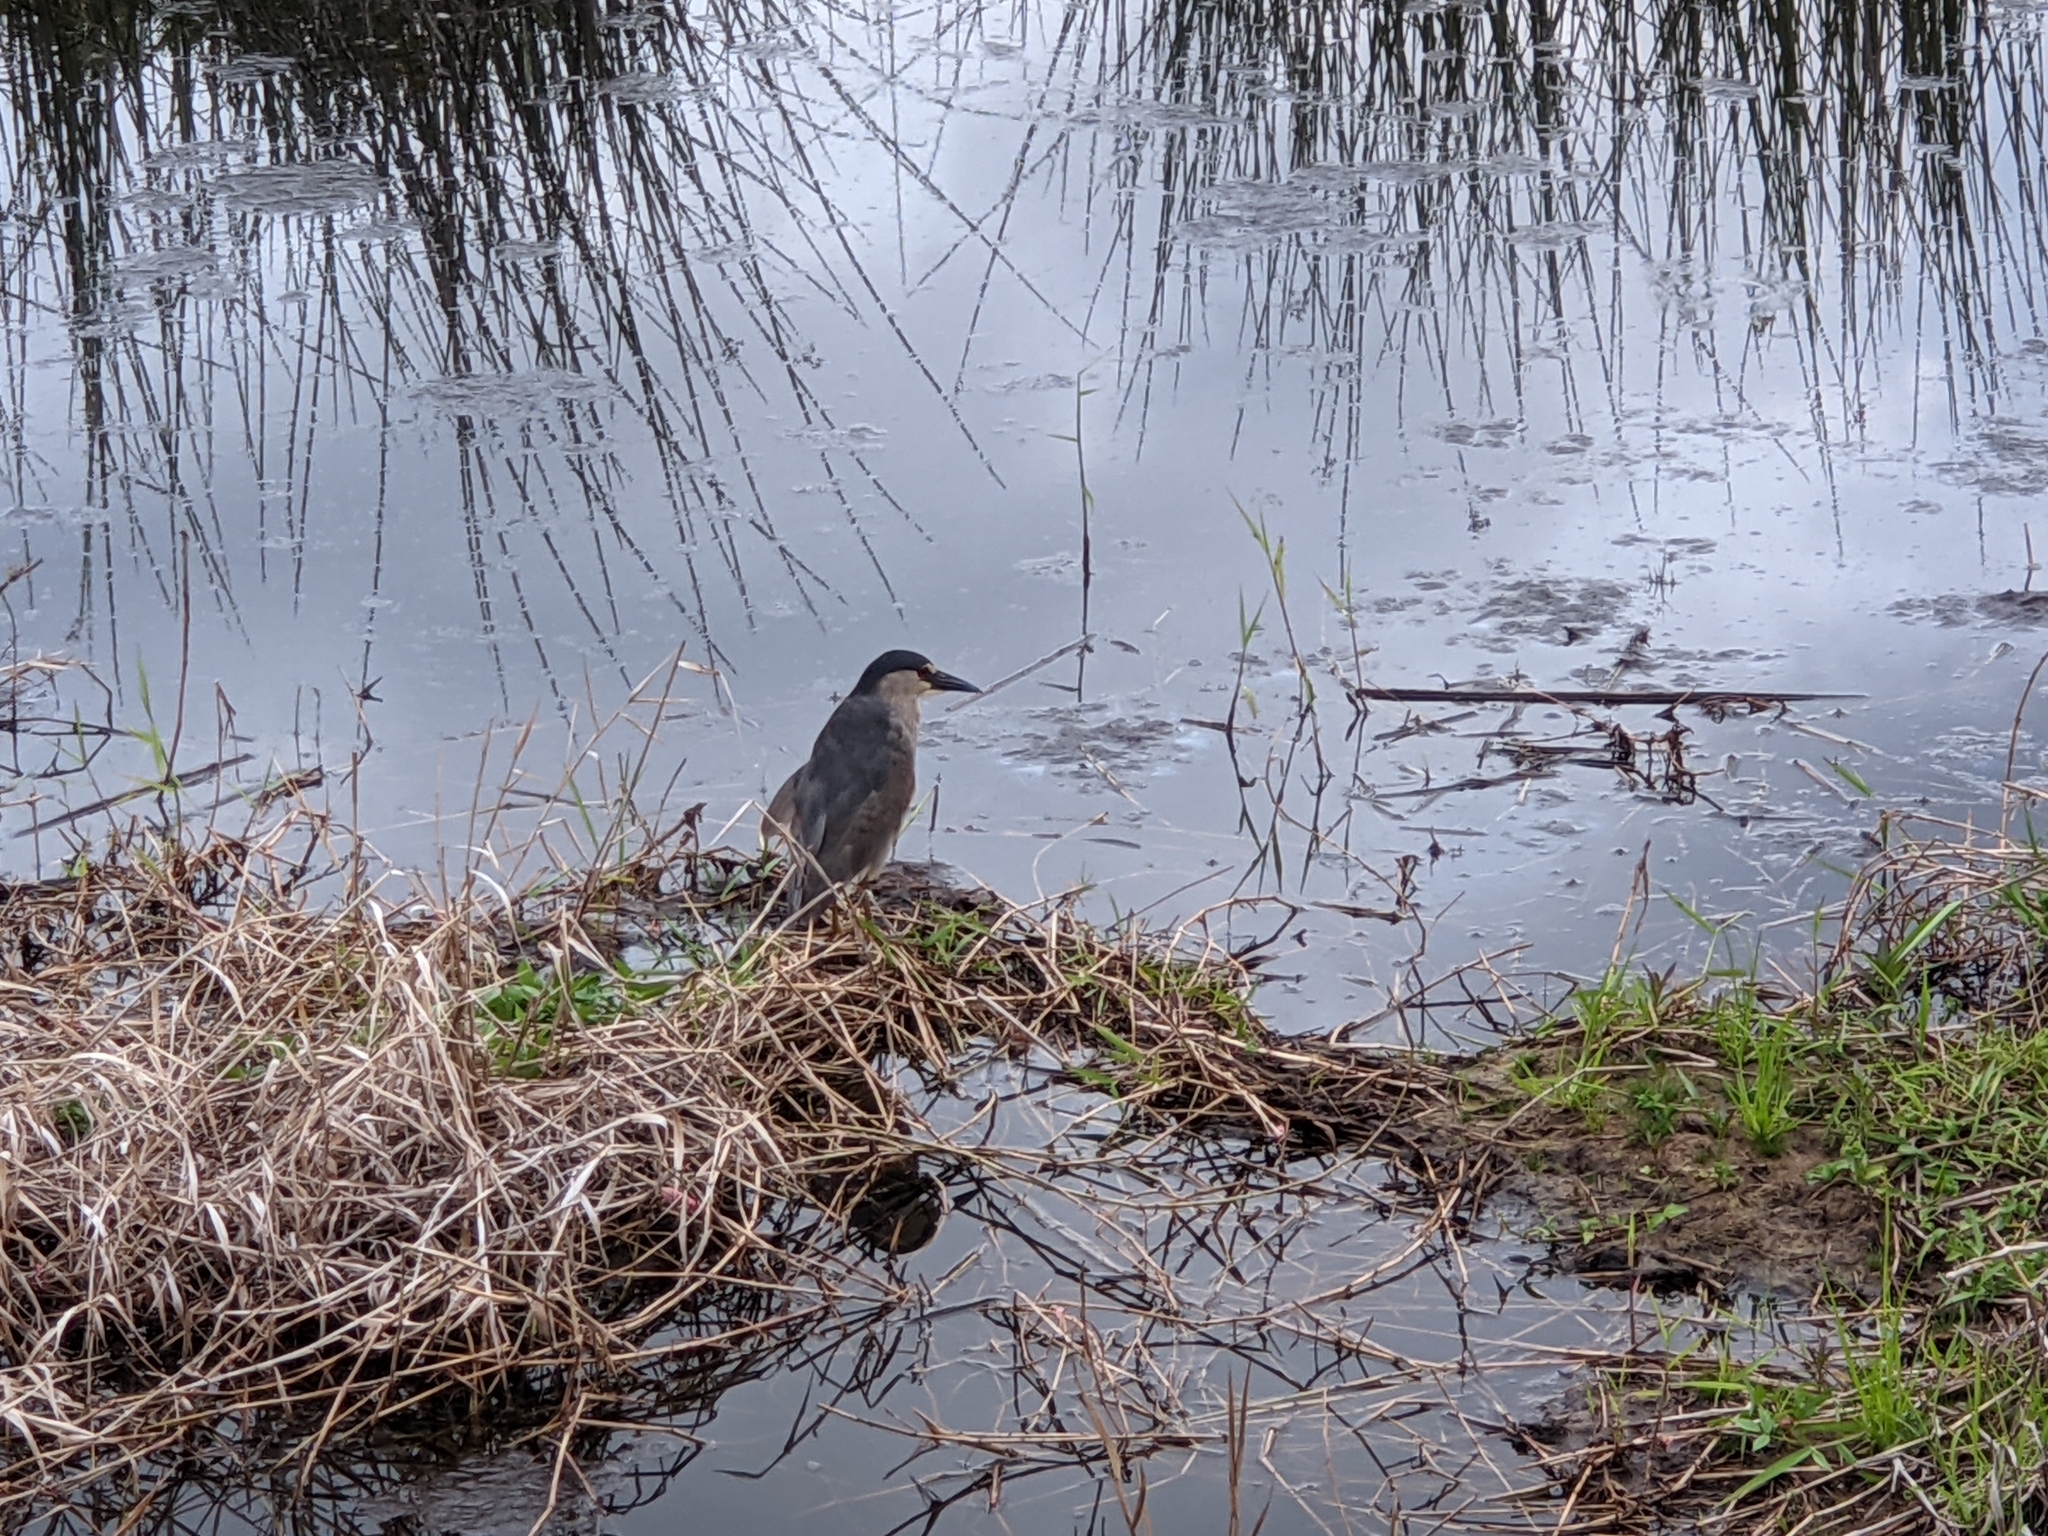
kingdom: Animalia
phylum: Chordata
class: Aves
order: Pelecaniformes
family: Ardeidae
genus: Nycticorax
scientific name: Nycticorax nycticorax
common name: Black-crowned night heron
